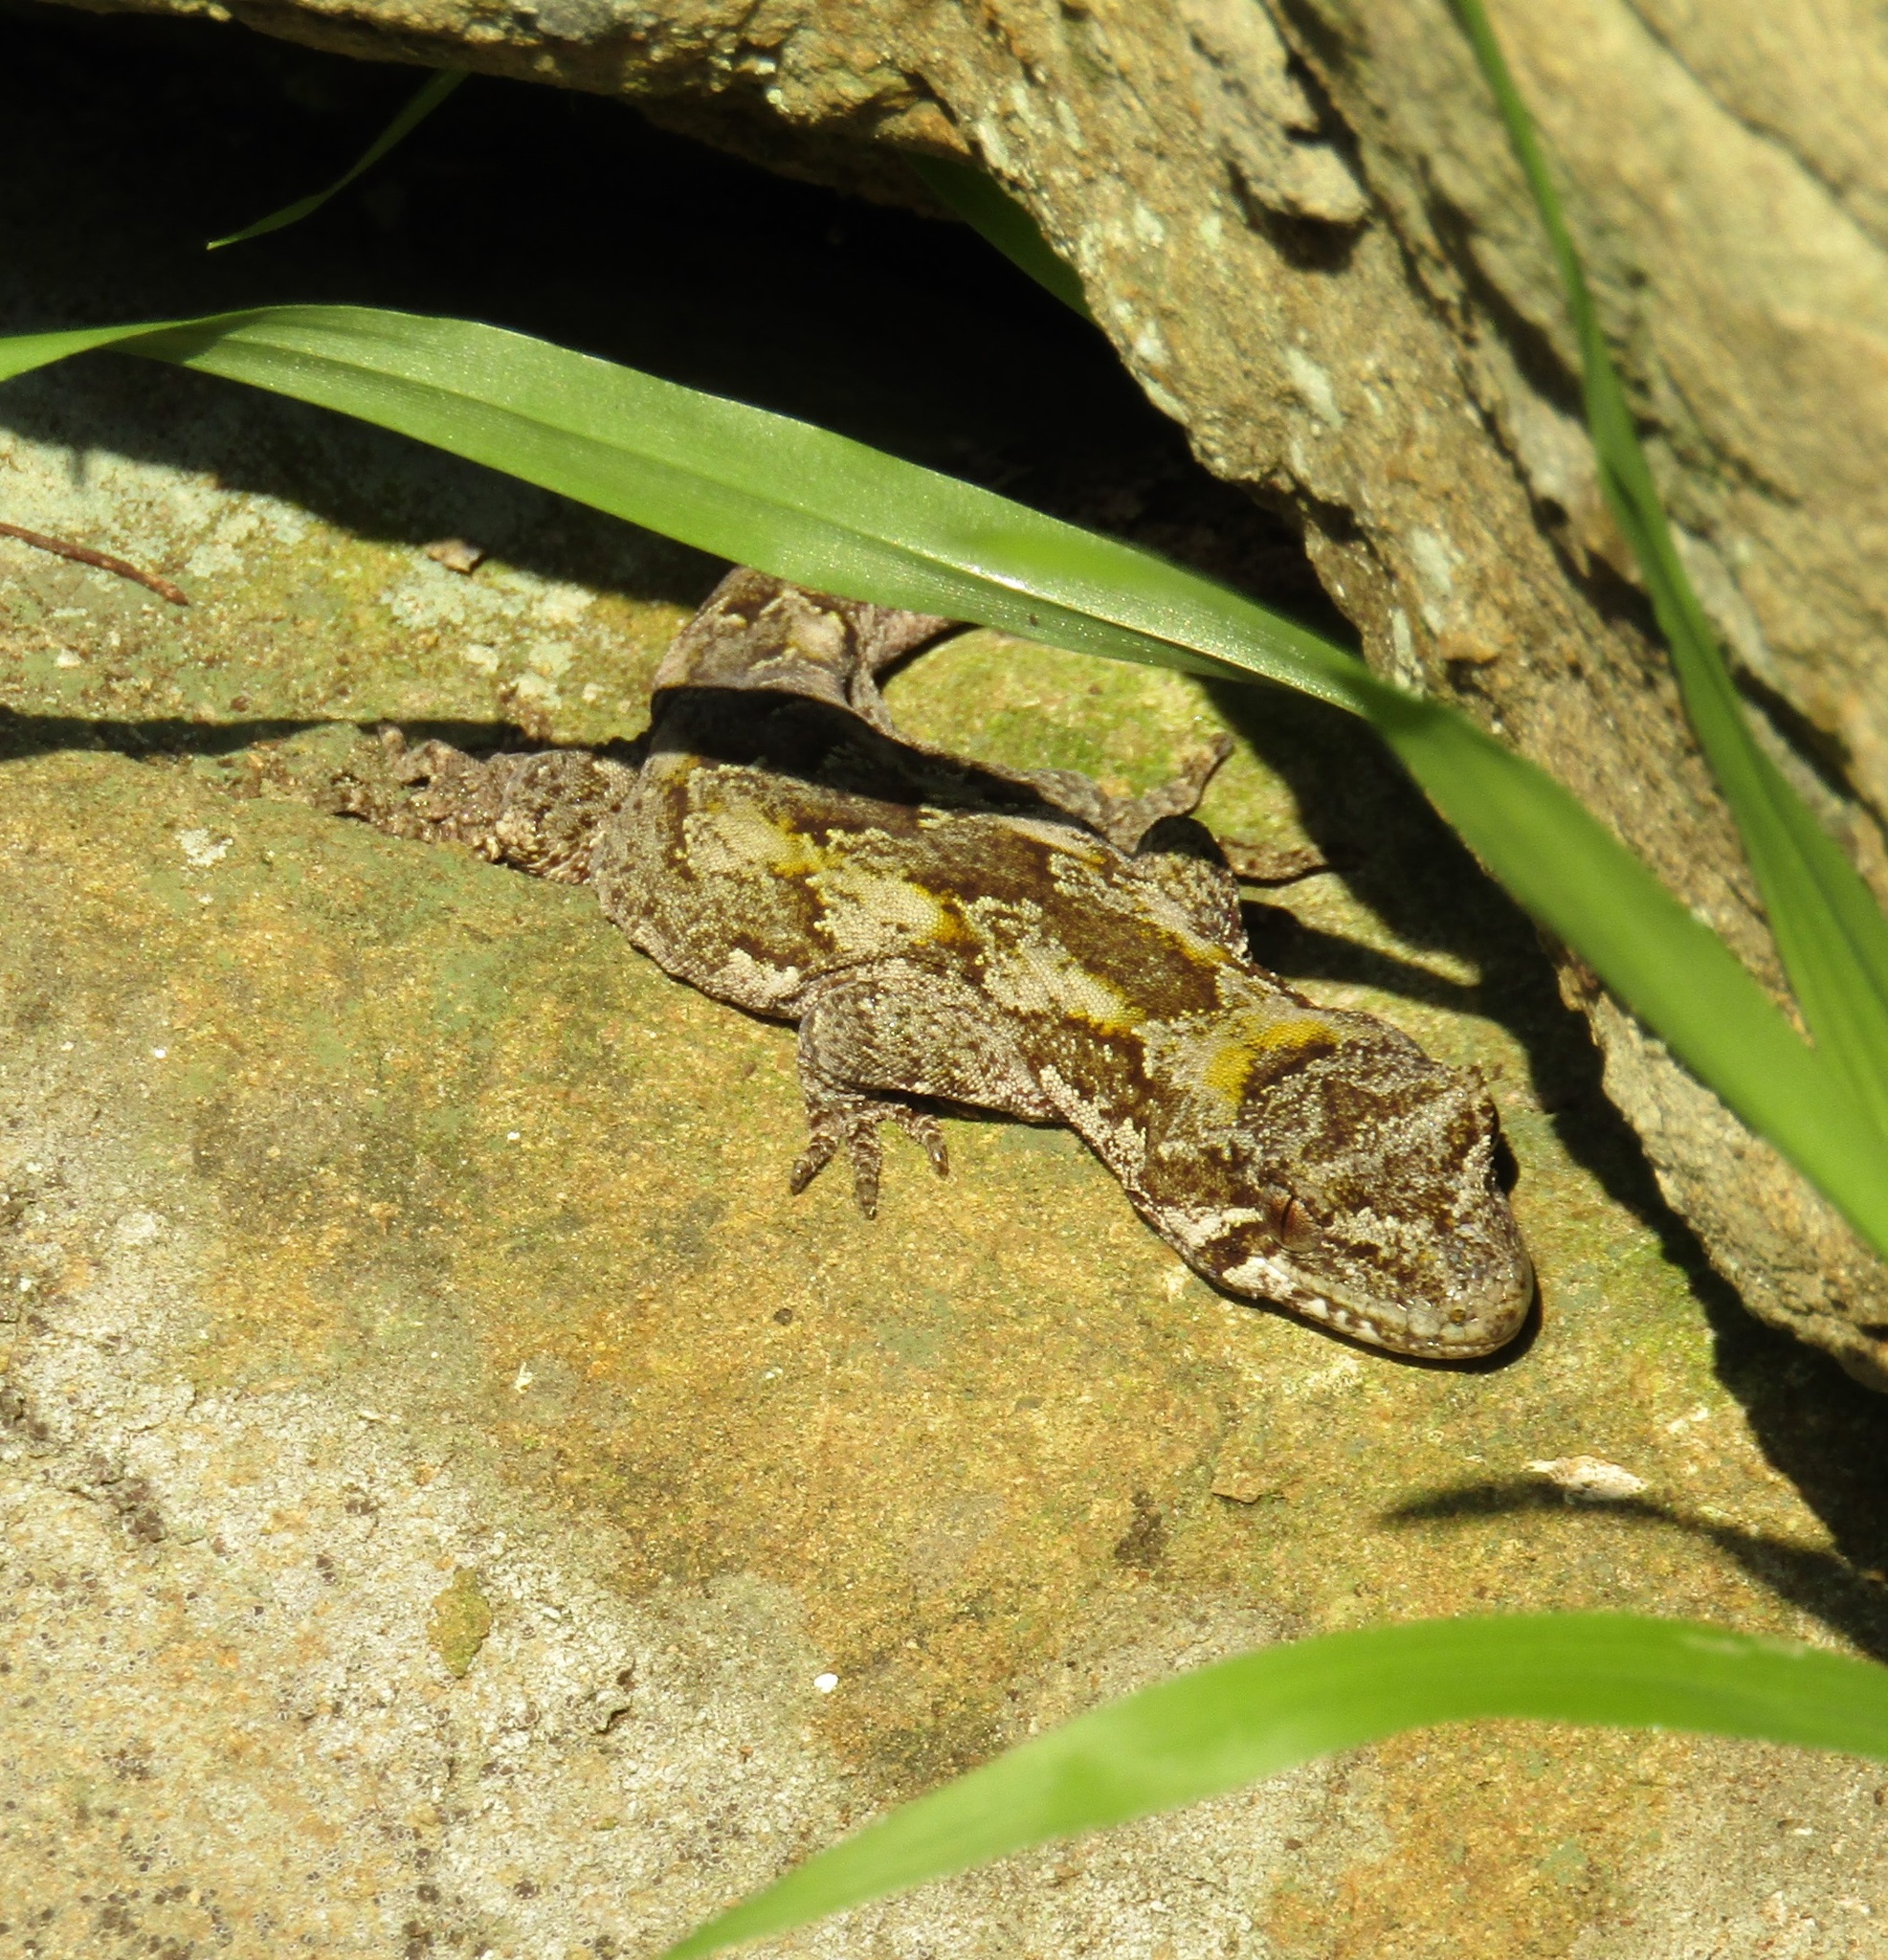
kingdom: Animalia
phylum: Chordata
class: Squamata
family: Diplodactylidae
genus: Mokopirirakau
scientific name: Mokopirirakau
